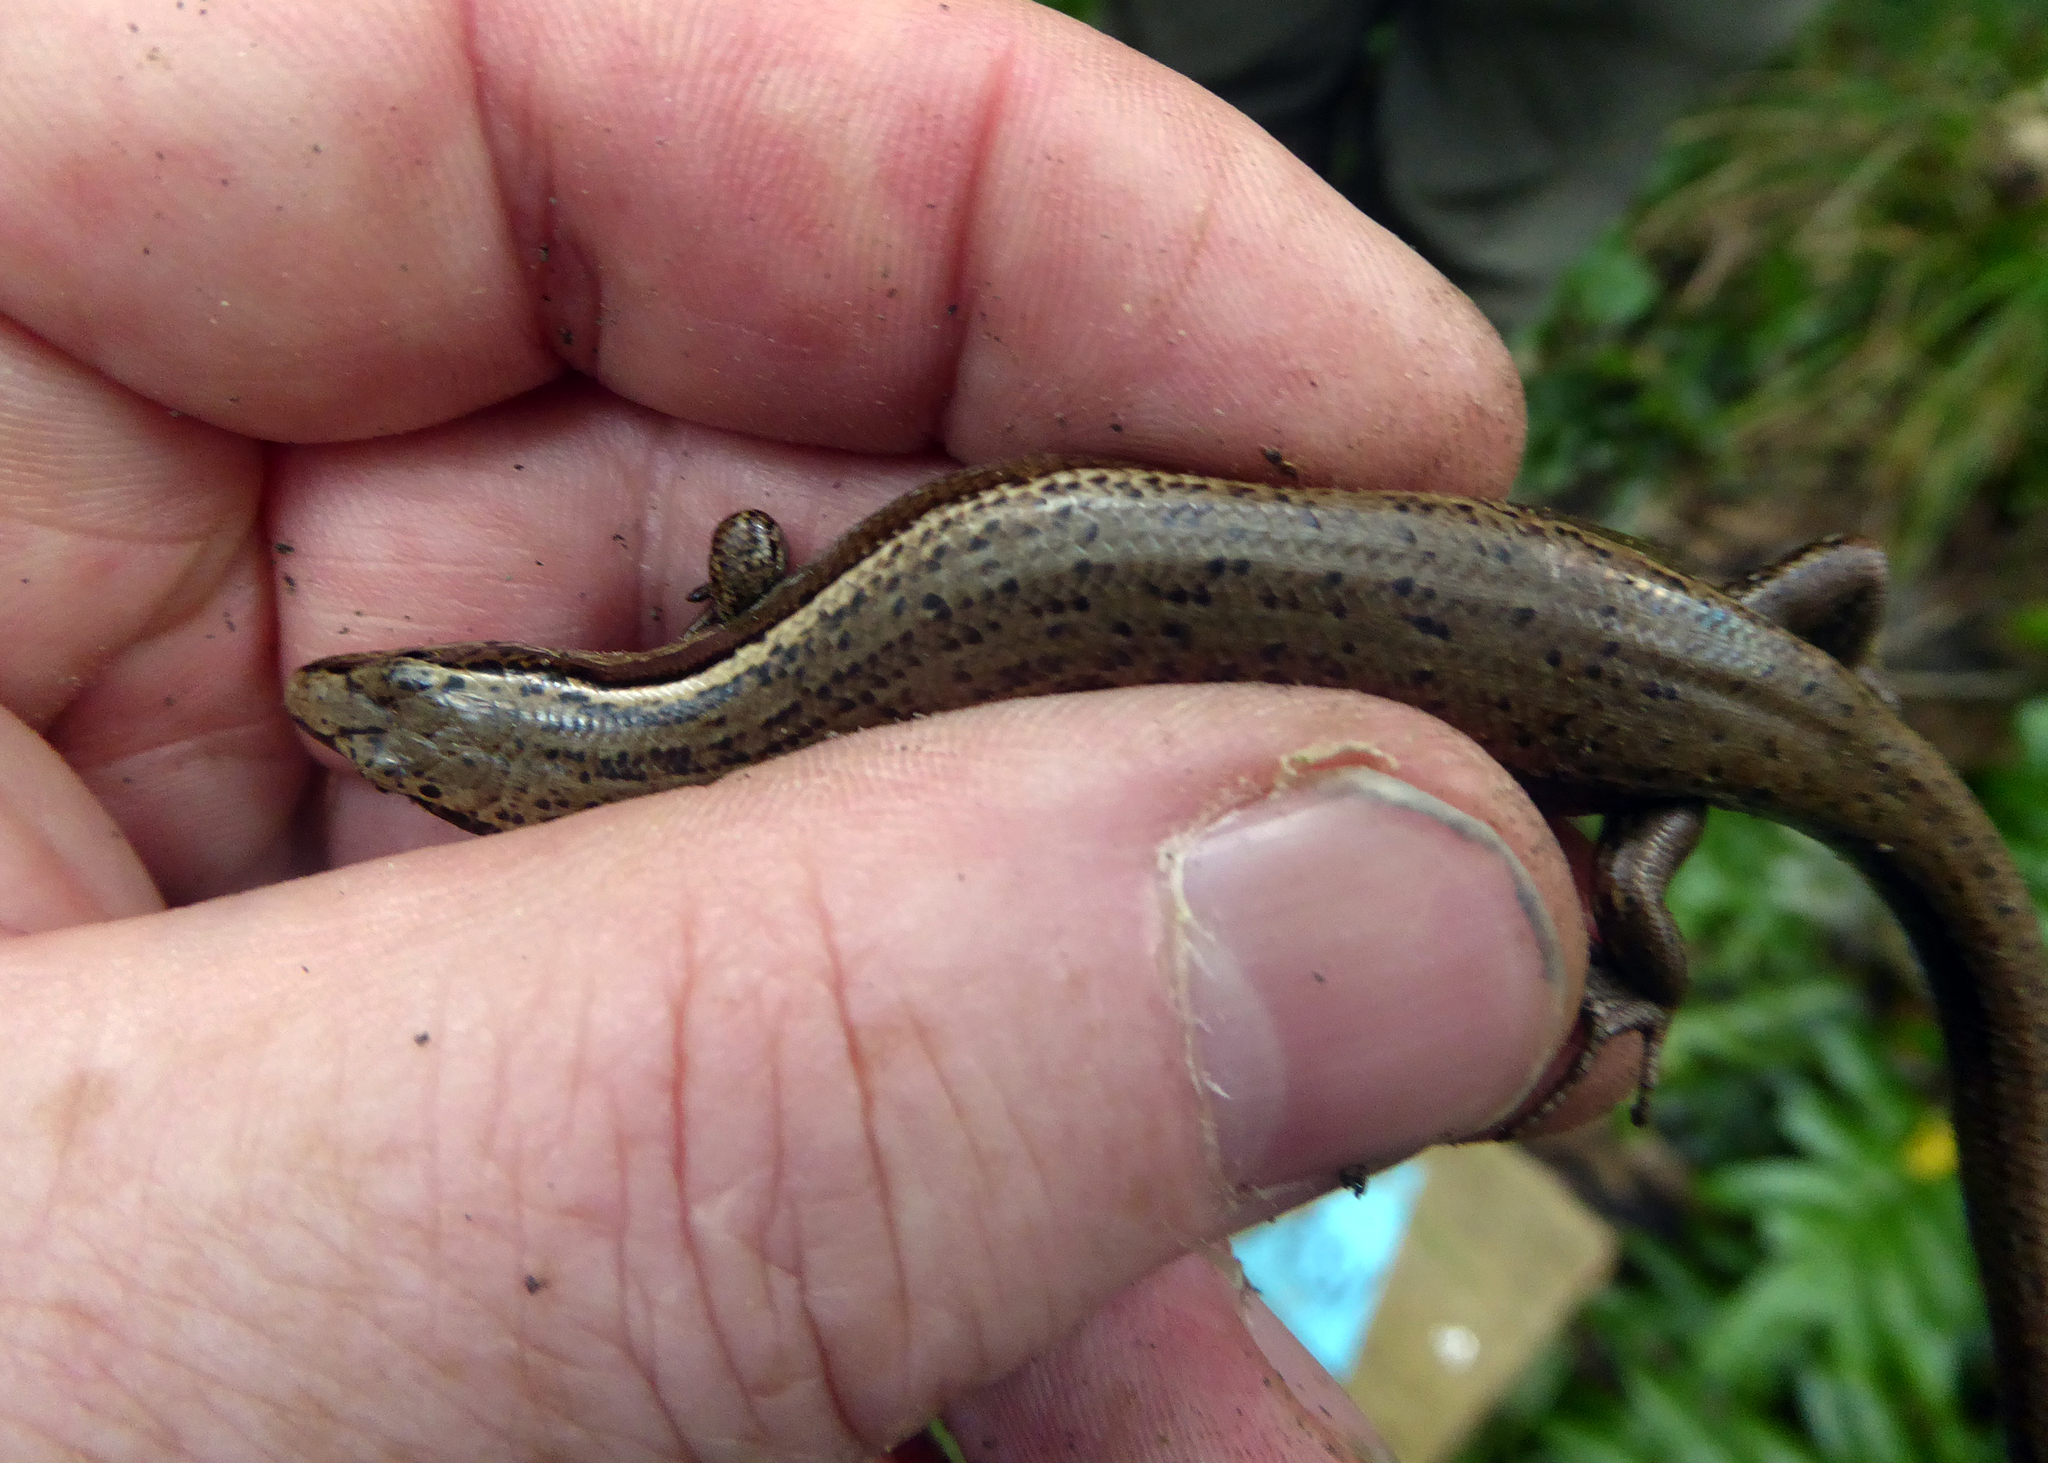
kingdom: Animalia
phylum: Chordata
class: Squamata
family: Scincidae
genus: Oligosoma
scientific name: Oligosoma zelandicum
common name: Brown skink
